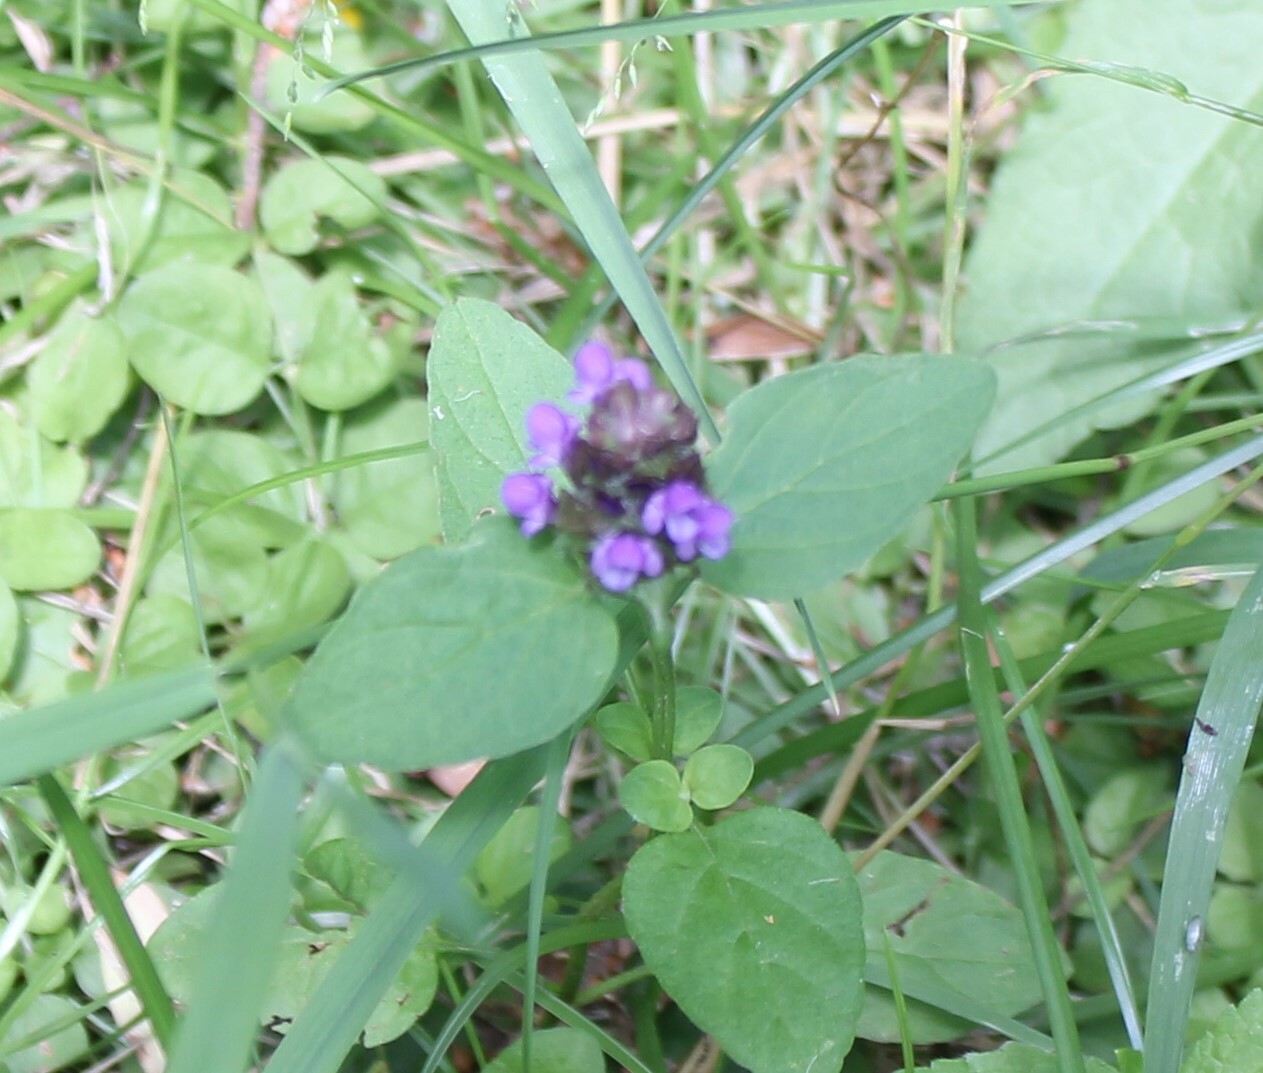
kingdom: Plantae
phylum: Tracheophyta
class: Magnoliopsida
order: Lamiales
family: Lamiaceae
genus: Prunella
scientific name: Prunella vulgaris
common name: Heal-all
